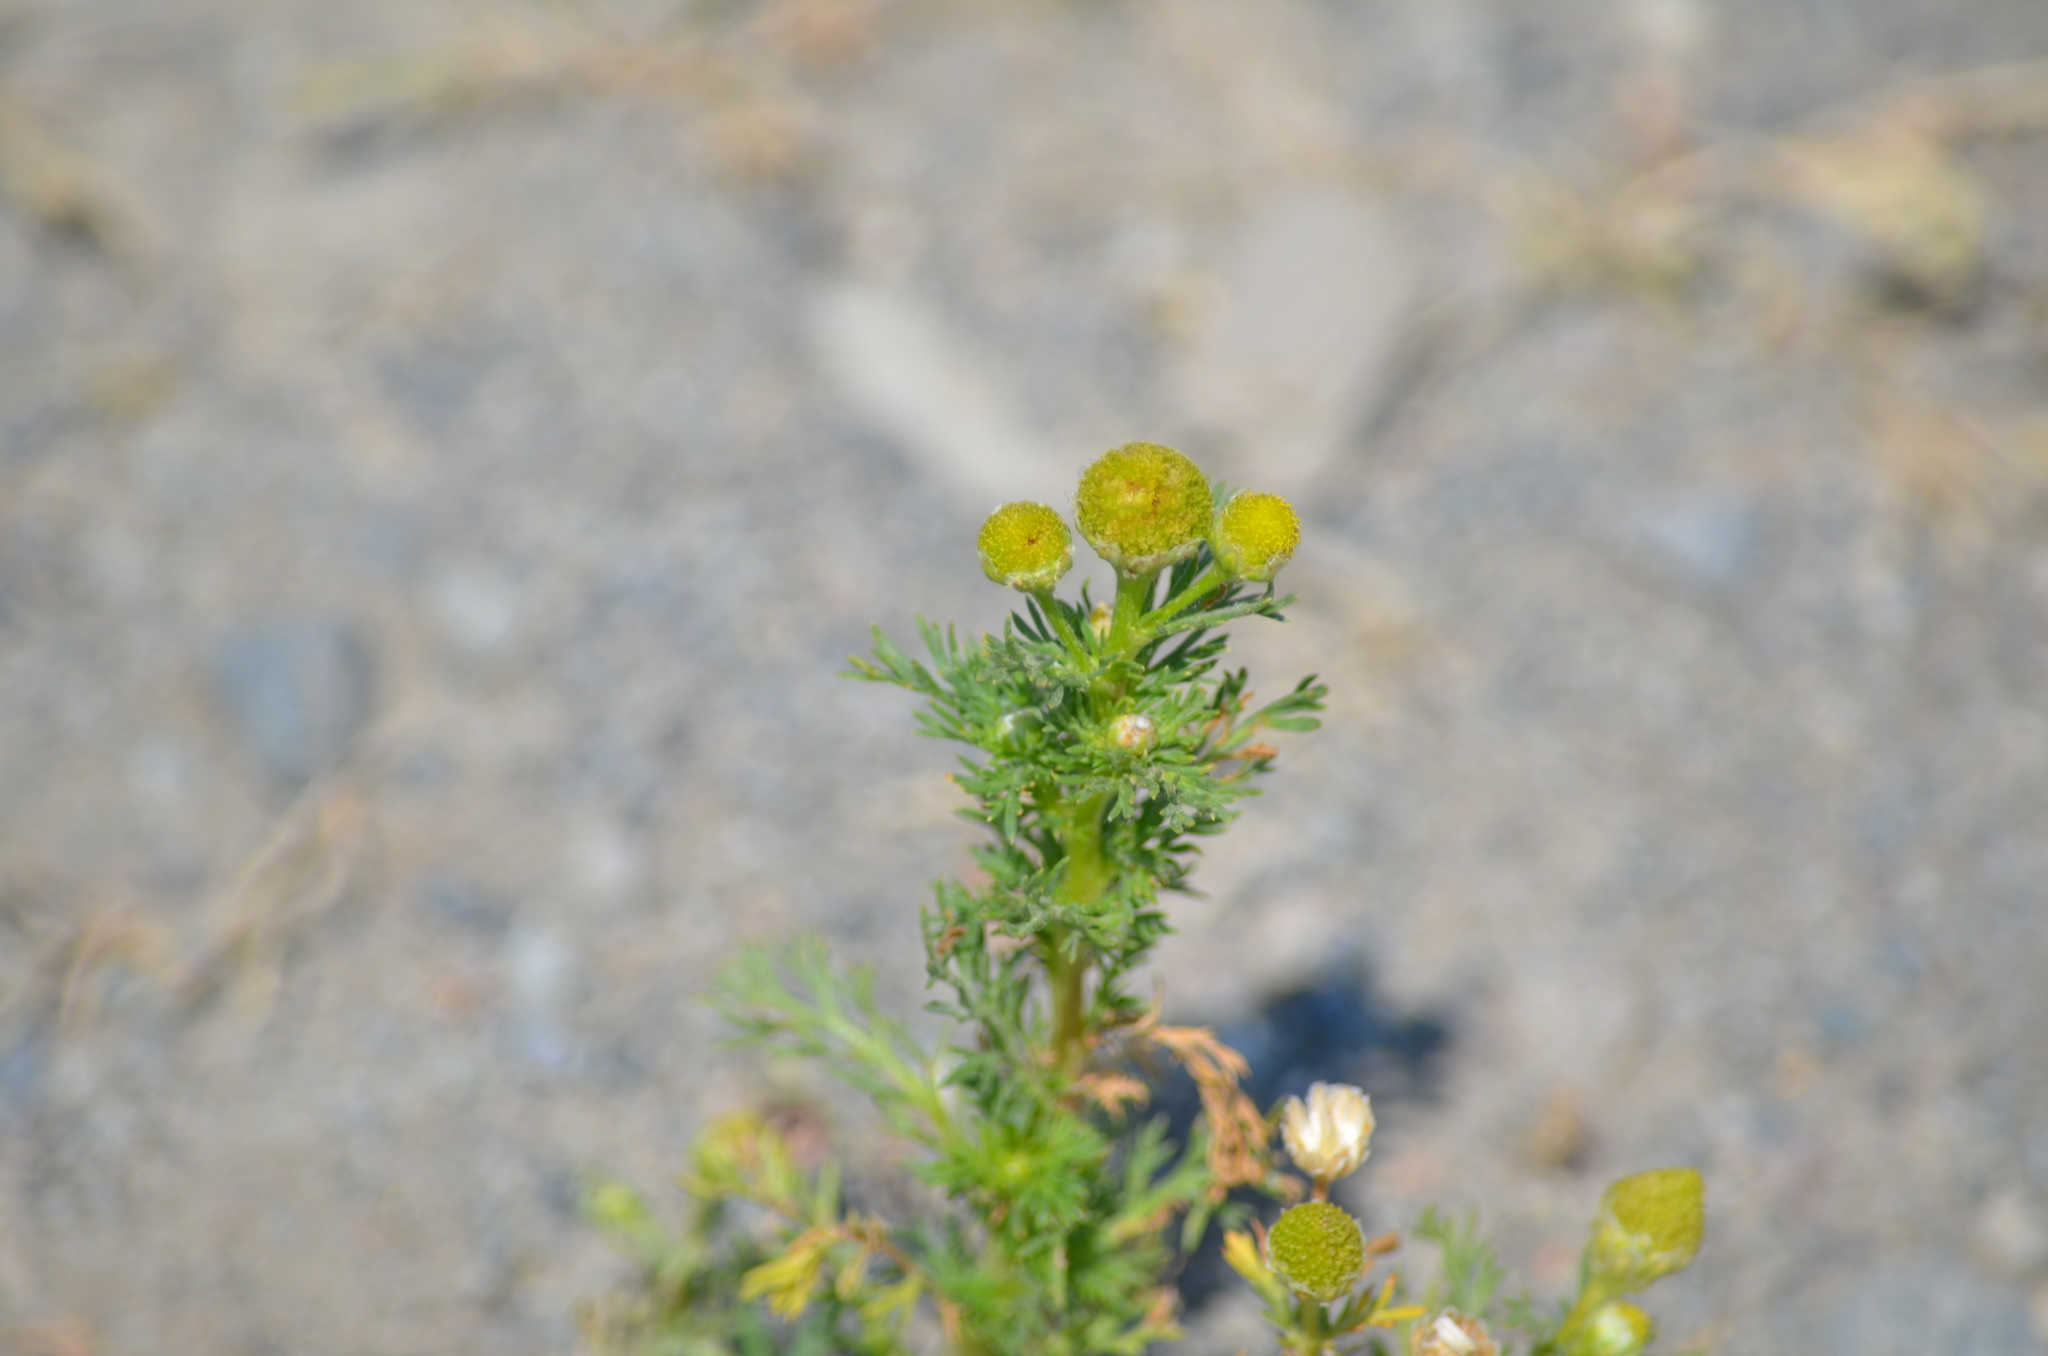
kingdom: Plantae
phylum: Tracheophyta
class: Magnoliopsida
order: Asterales
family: Asteraceae
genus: Matricaria
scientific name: Matricaria discoidea
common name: Disc mayweed
